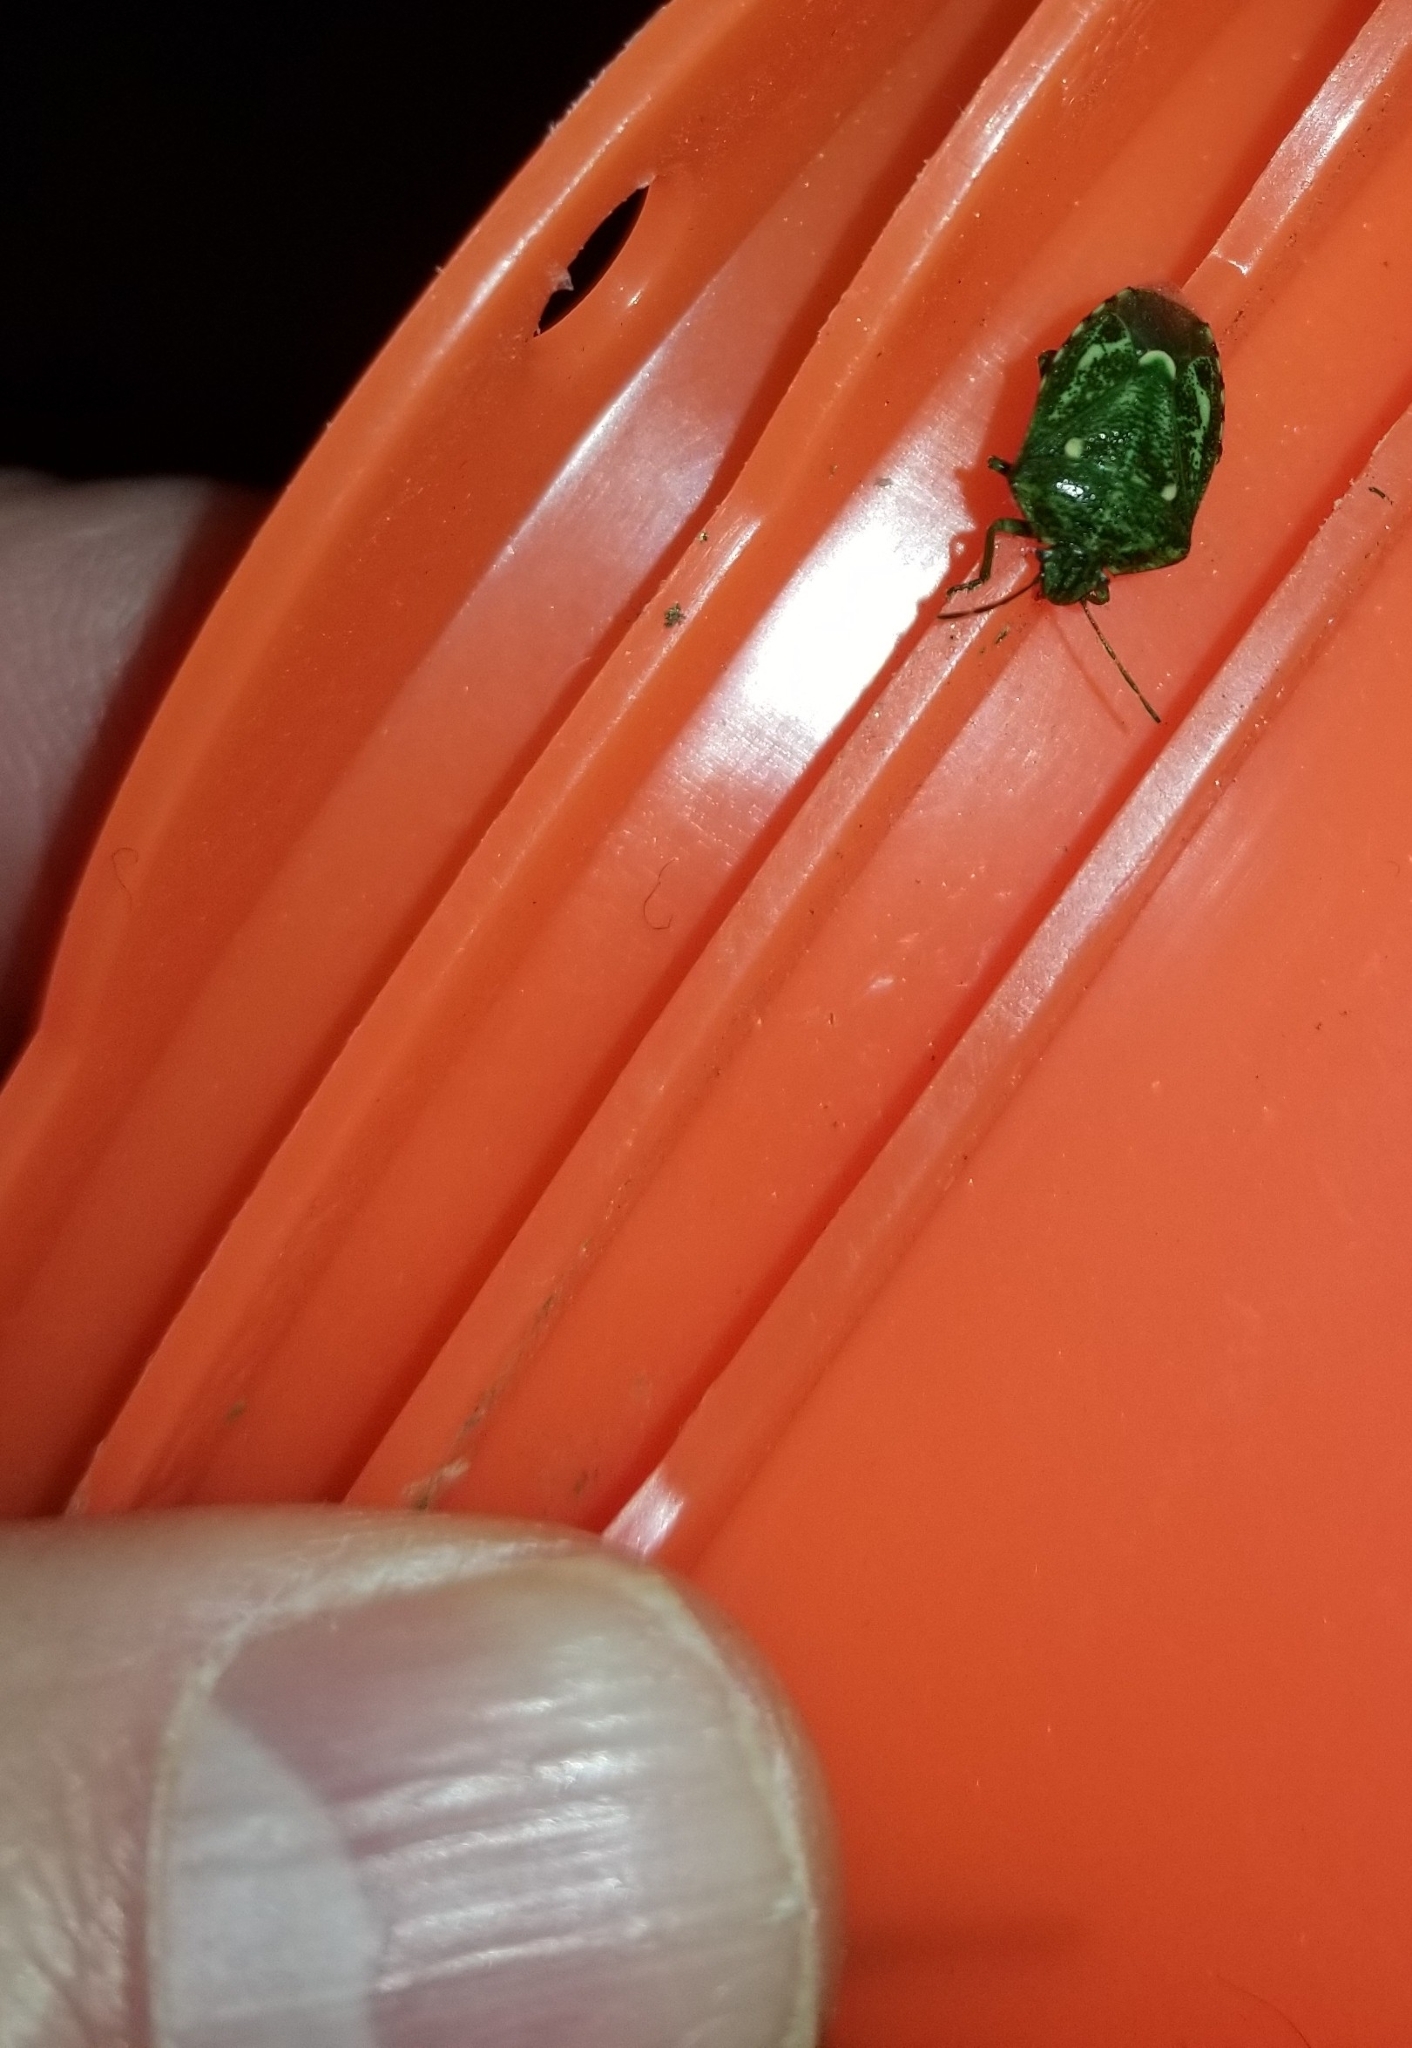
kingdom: Animalia
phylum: Arthropoda
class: Insecta
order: Hemiptera
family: Pentatomidae
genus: Banasa
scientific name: Banasa euchlora
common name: Cedar berry bug
